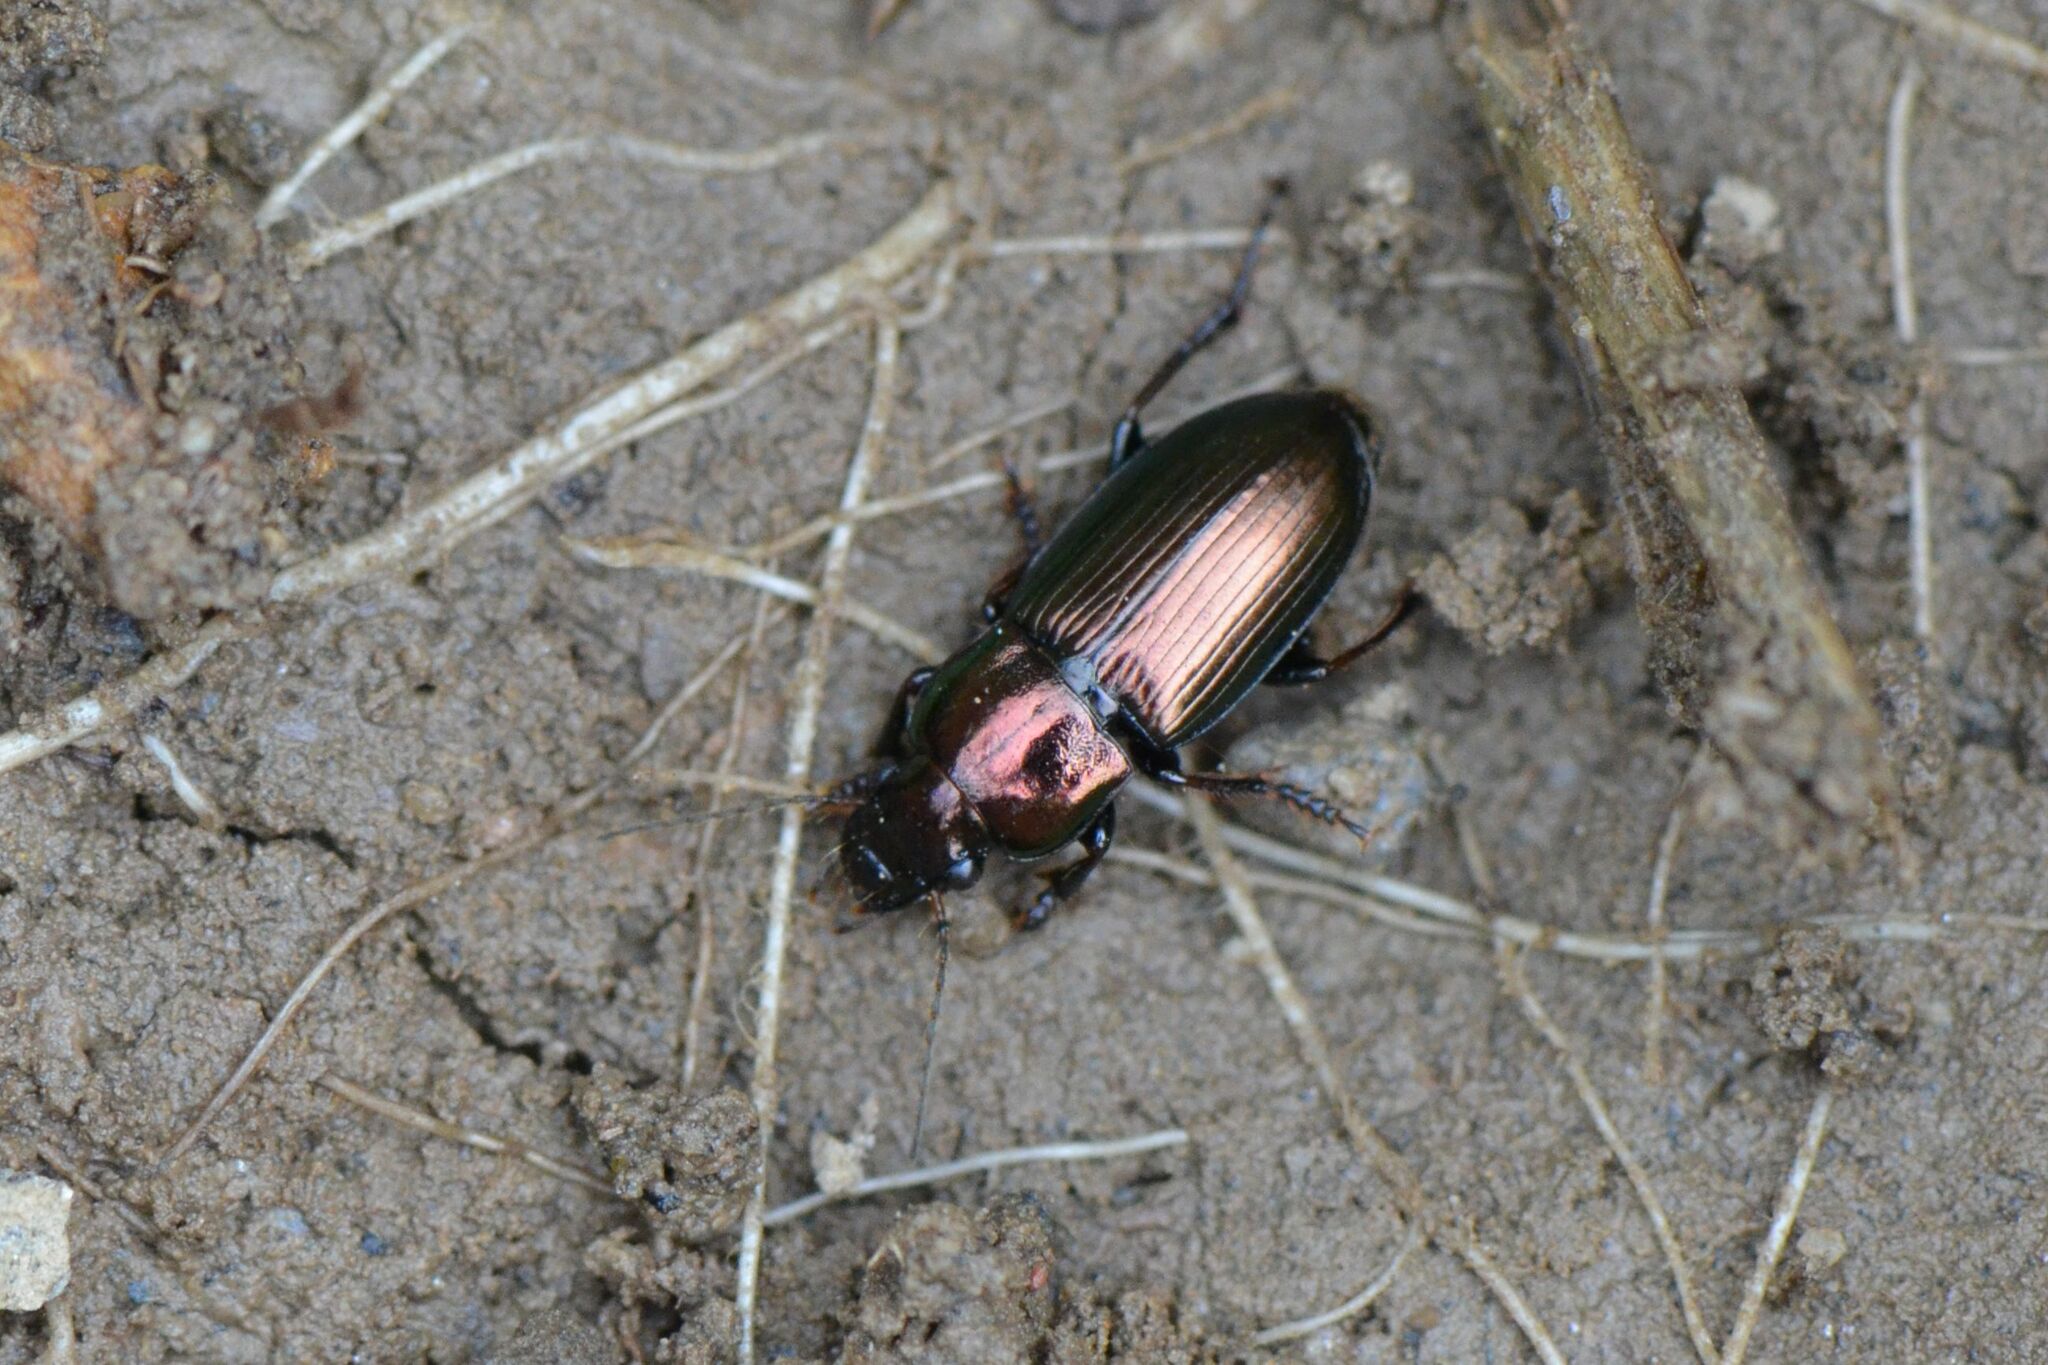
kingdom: Animalia
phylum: Arthropoda
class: Insecta
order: Coleoptera
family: Carabidae
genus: Harpalus
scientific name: Harpalus distinguendus
